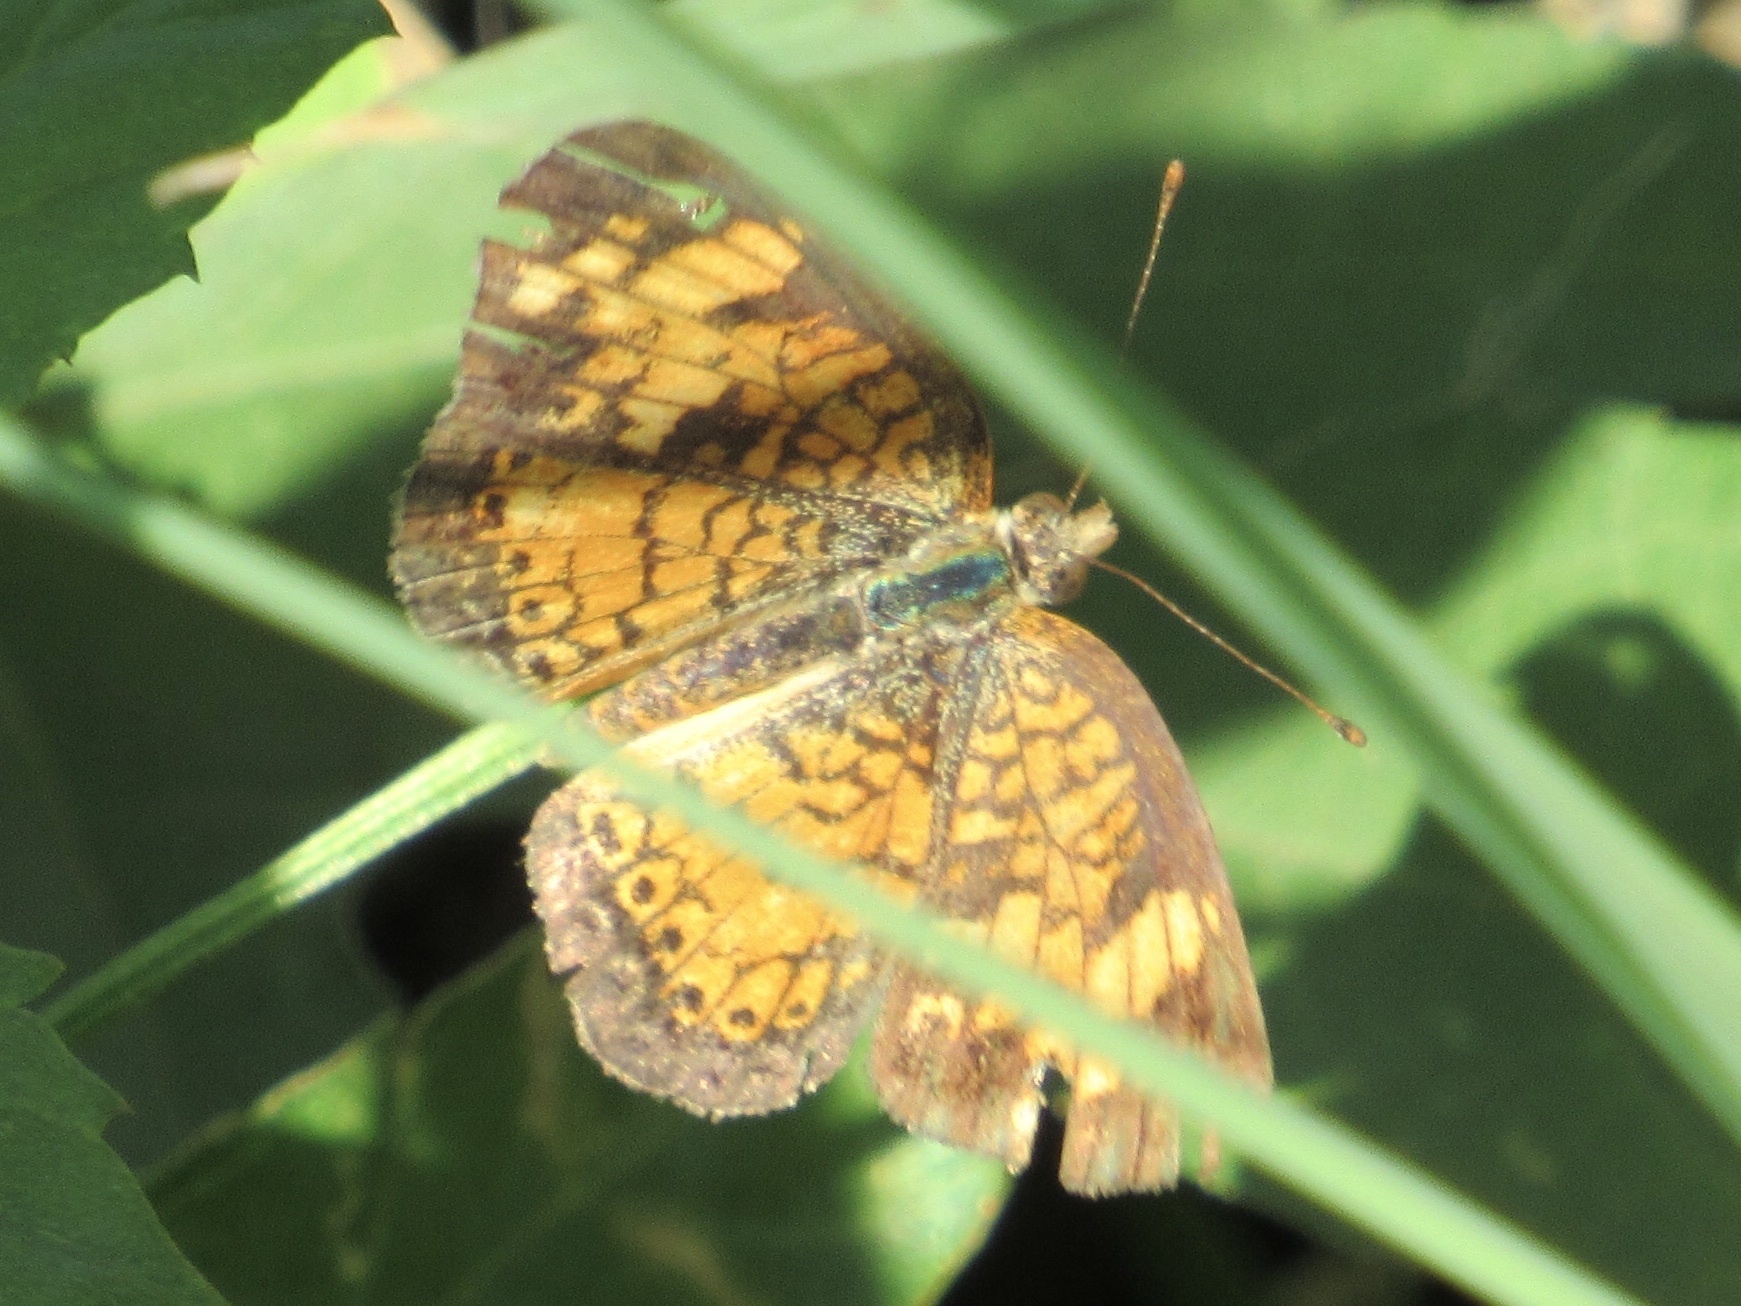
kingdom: Animalia
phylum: Arthropoda
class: Insecta
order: Lepidoptera
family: Nymphalidae
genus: Phyciodes
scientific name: Phyciodes tharos
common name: Pearl crescent
